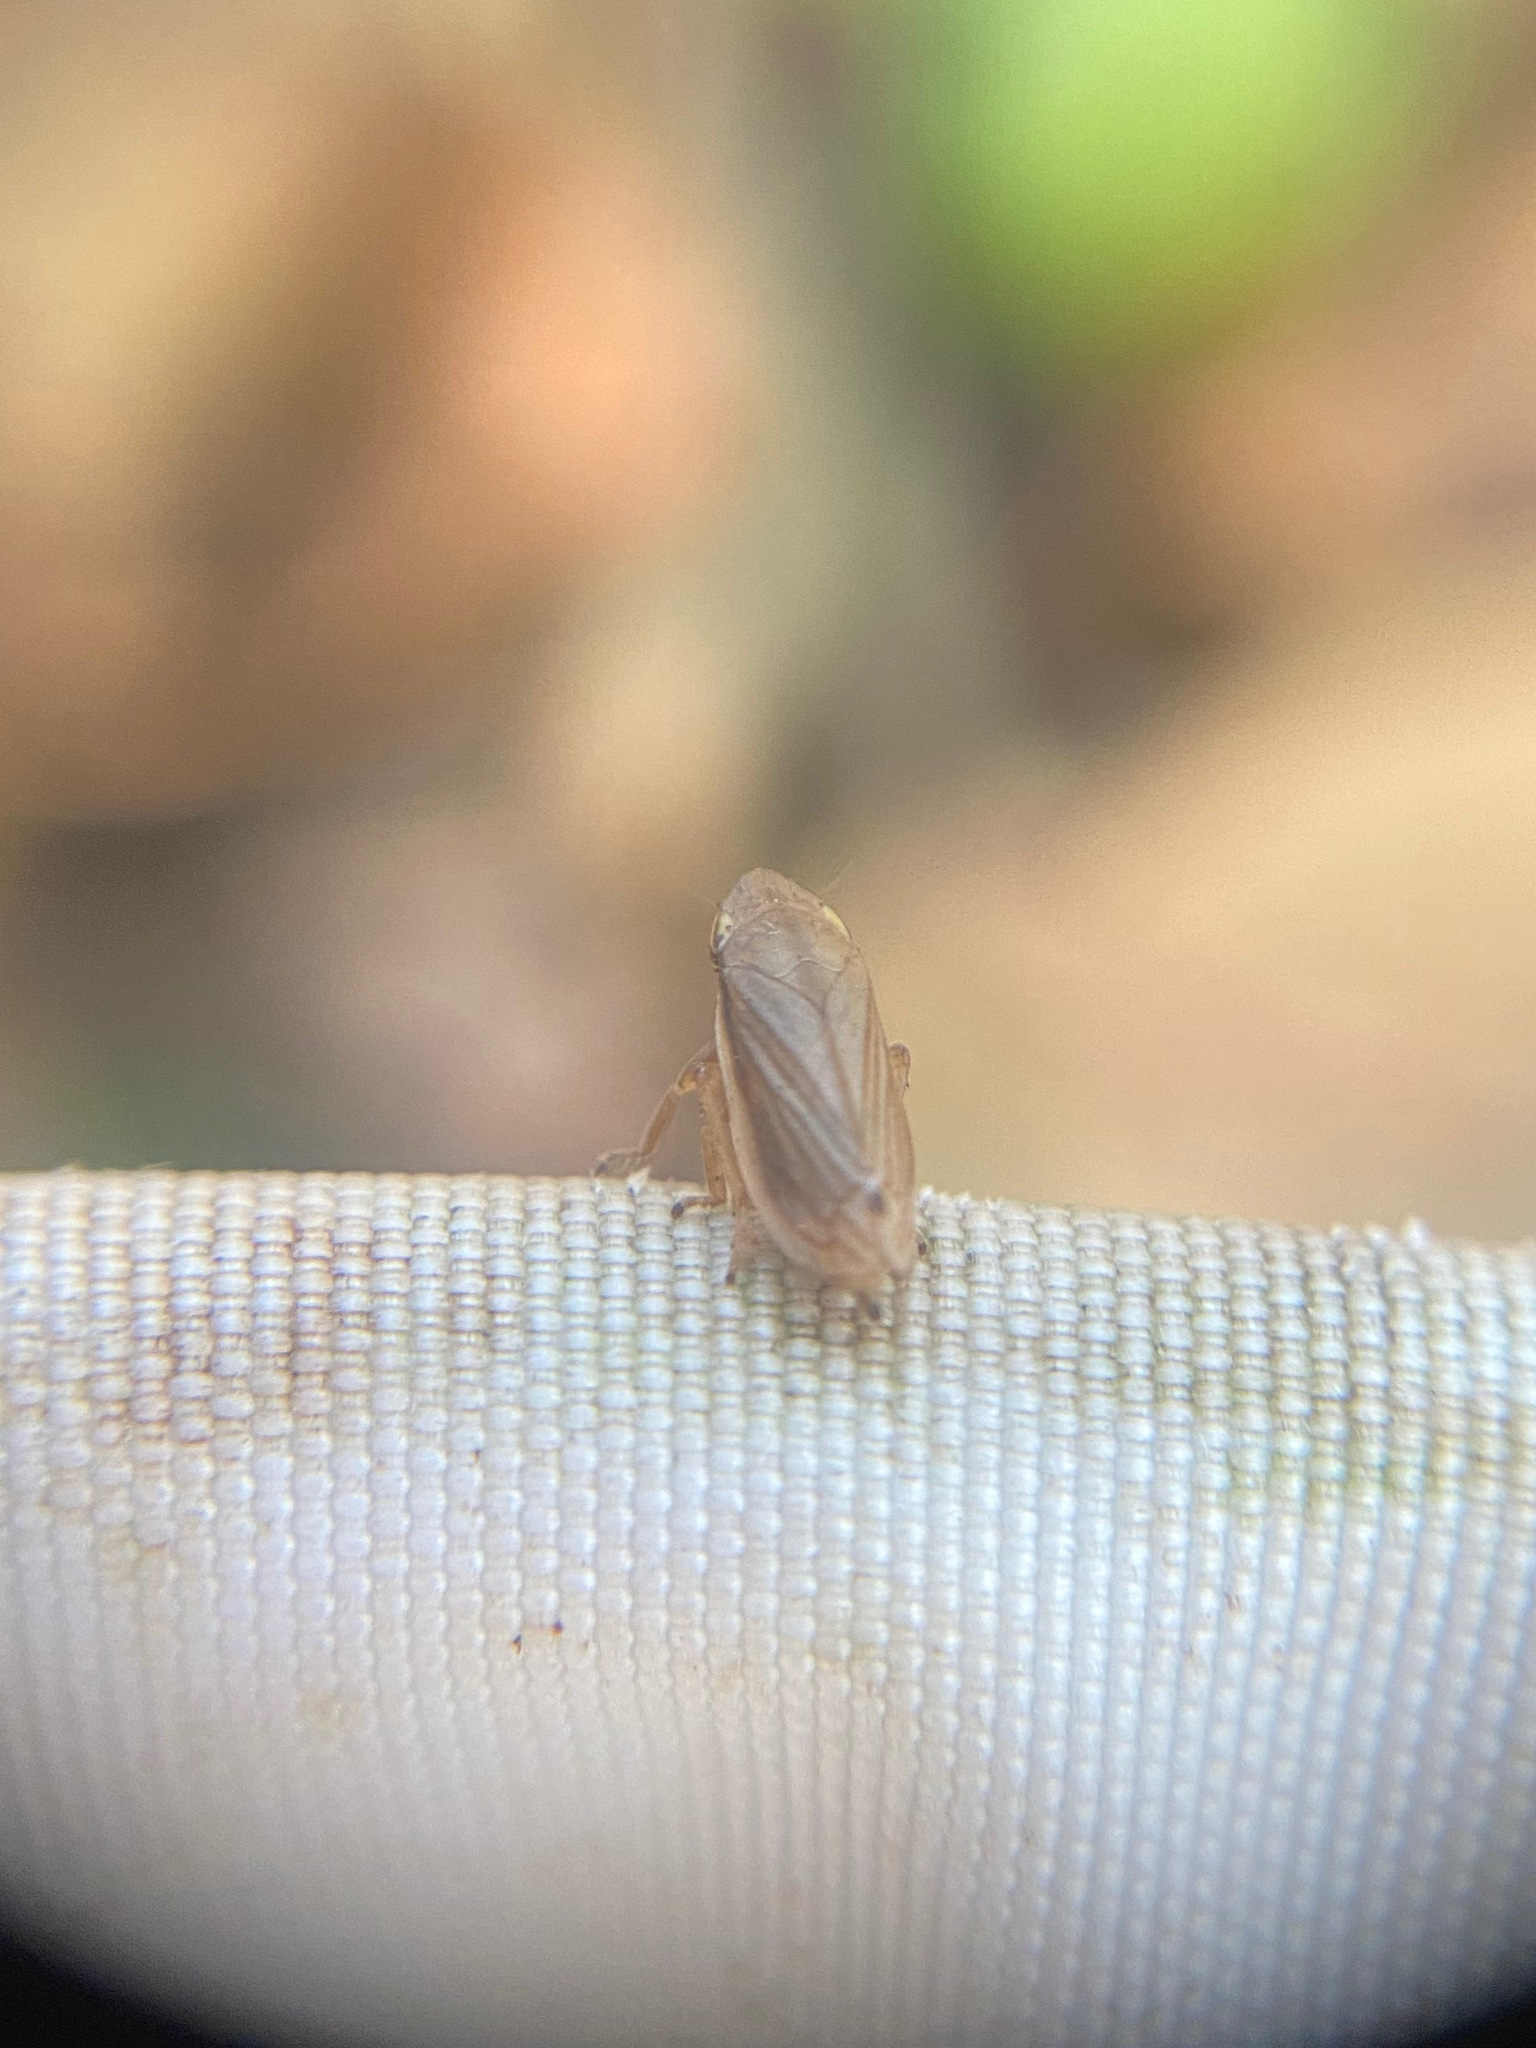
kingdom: Animalia
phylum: Arthropoda
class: Insecta
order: Hemiptera
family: Aphrophoridae
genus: Neophilaenus
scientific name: Neophilaenus lineatus
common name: Spittlebug
